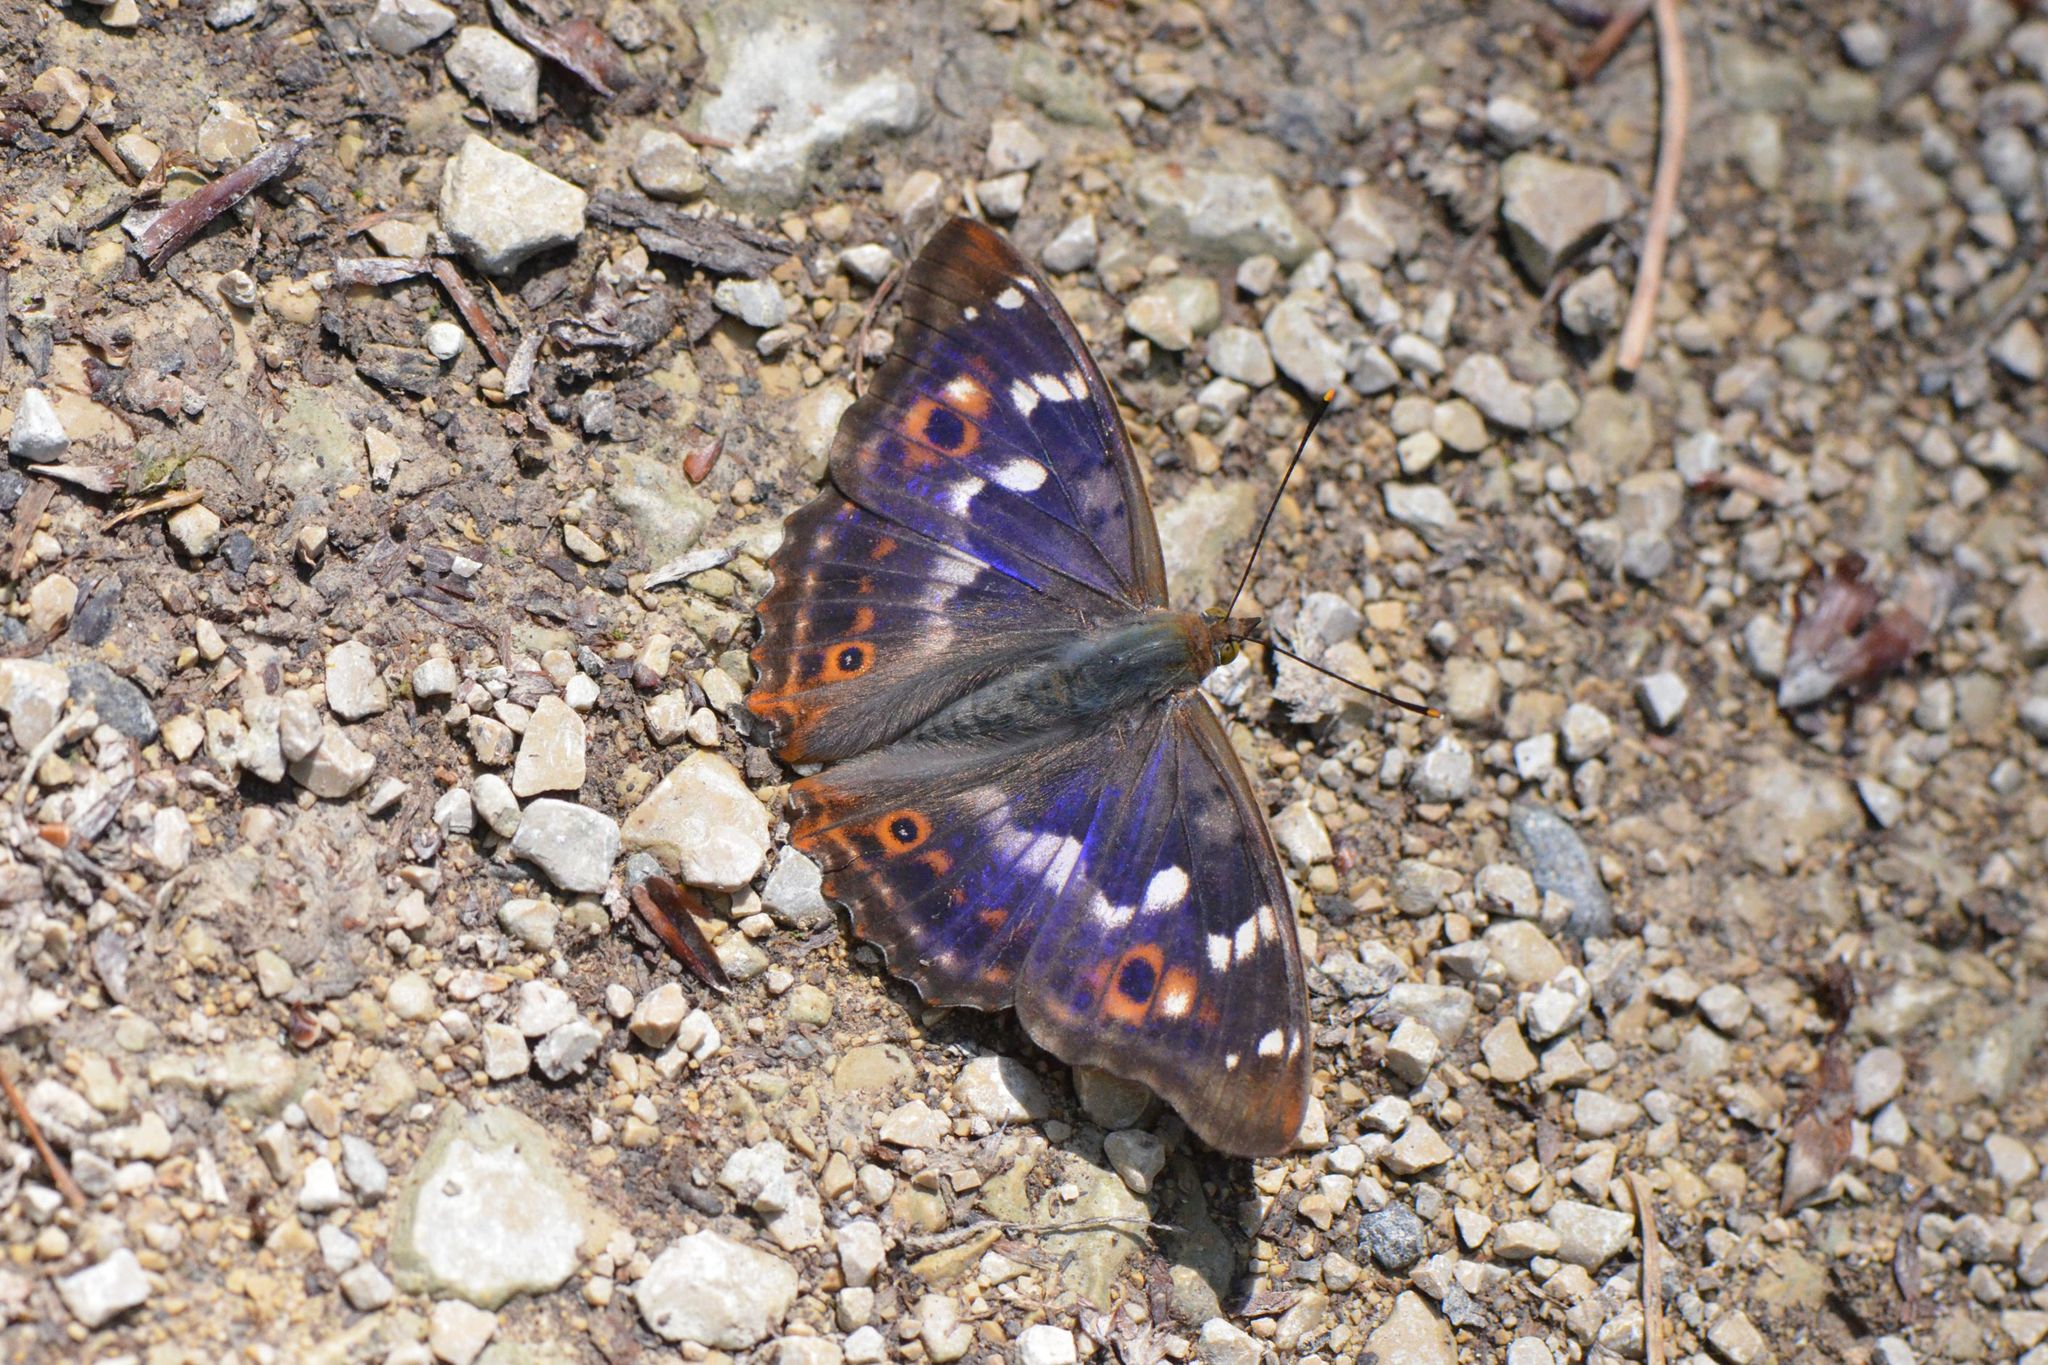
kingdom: Animalia
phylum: Arthropoda
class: Insecta
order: Lepidoptera
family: Nymphalidae
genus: Apatura
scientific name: Apatura ilia
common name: Lesser purple emperor
